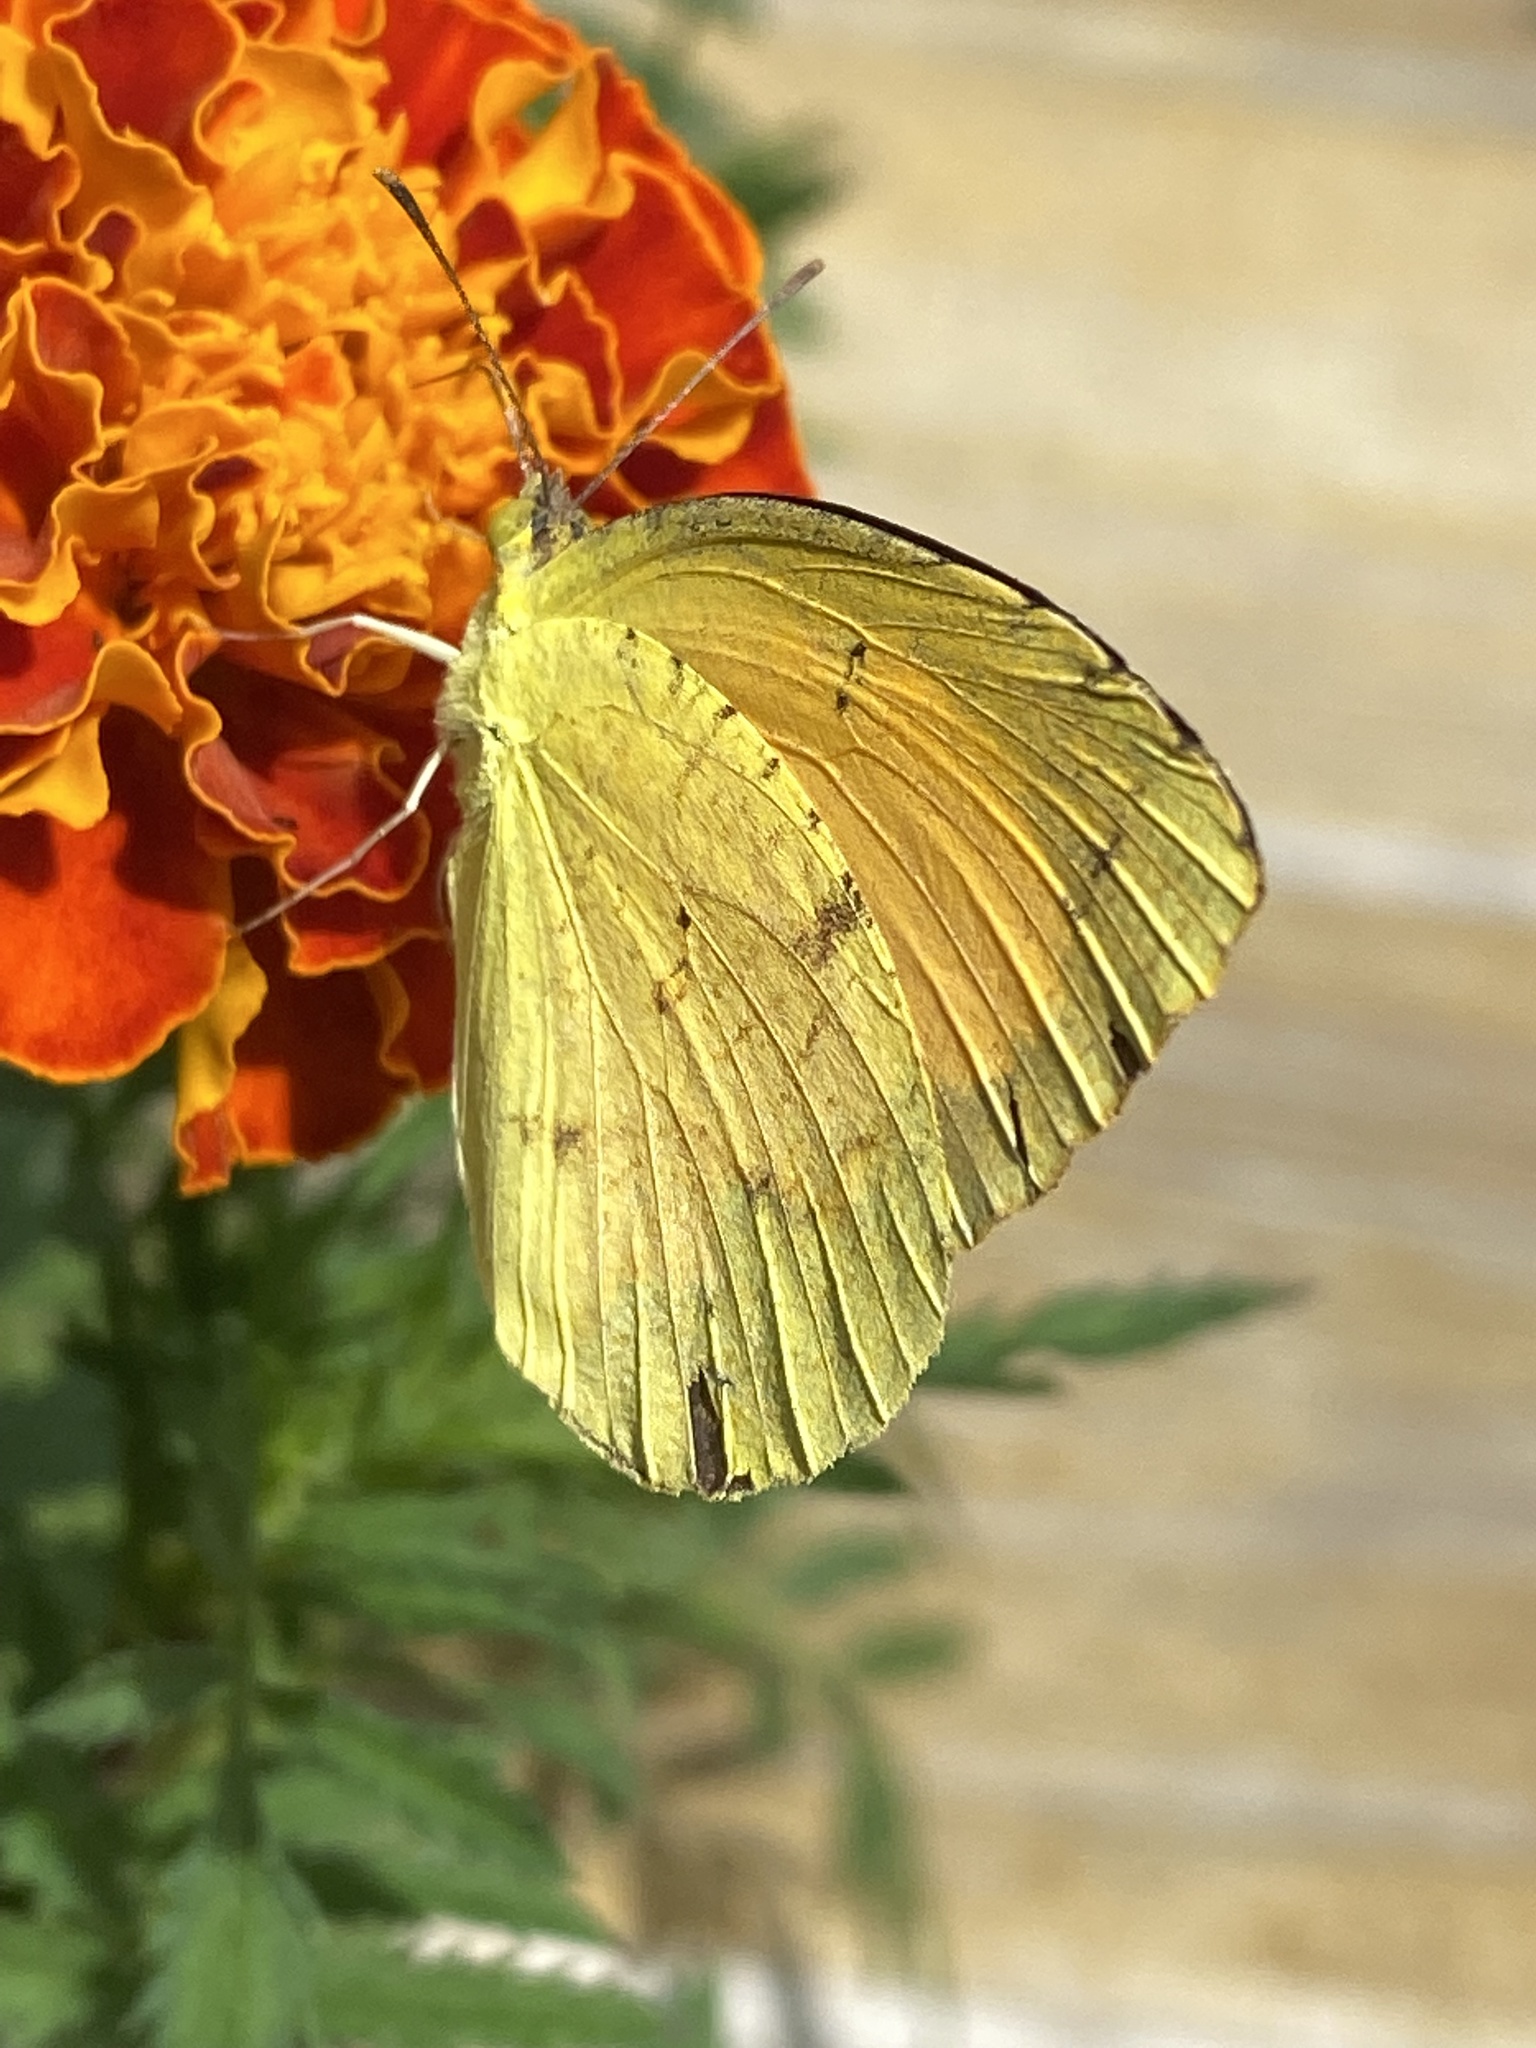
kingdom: Animalia
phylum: Arthropoda
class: Insecta
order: Lepidoptera
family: Pieridae
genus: Abaeis
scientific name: Abaeis nicippe
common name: Sleepy orange
